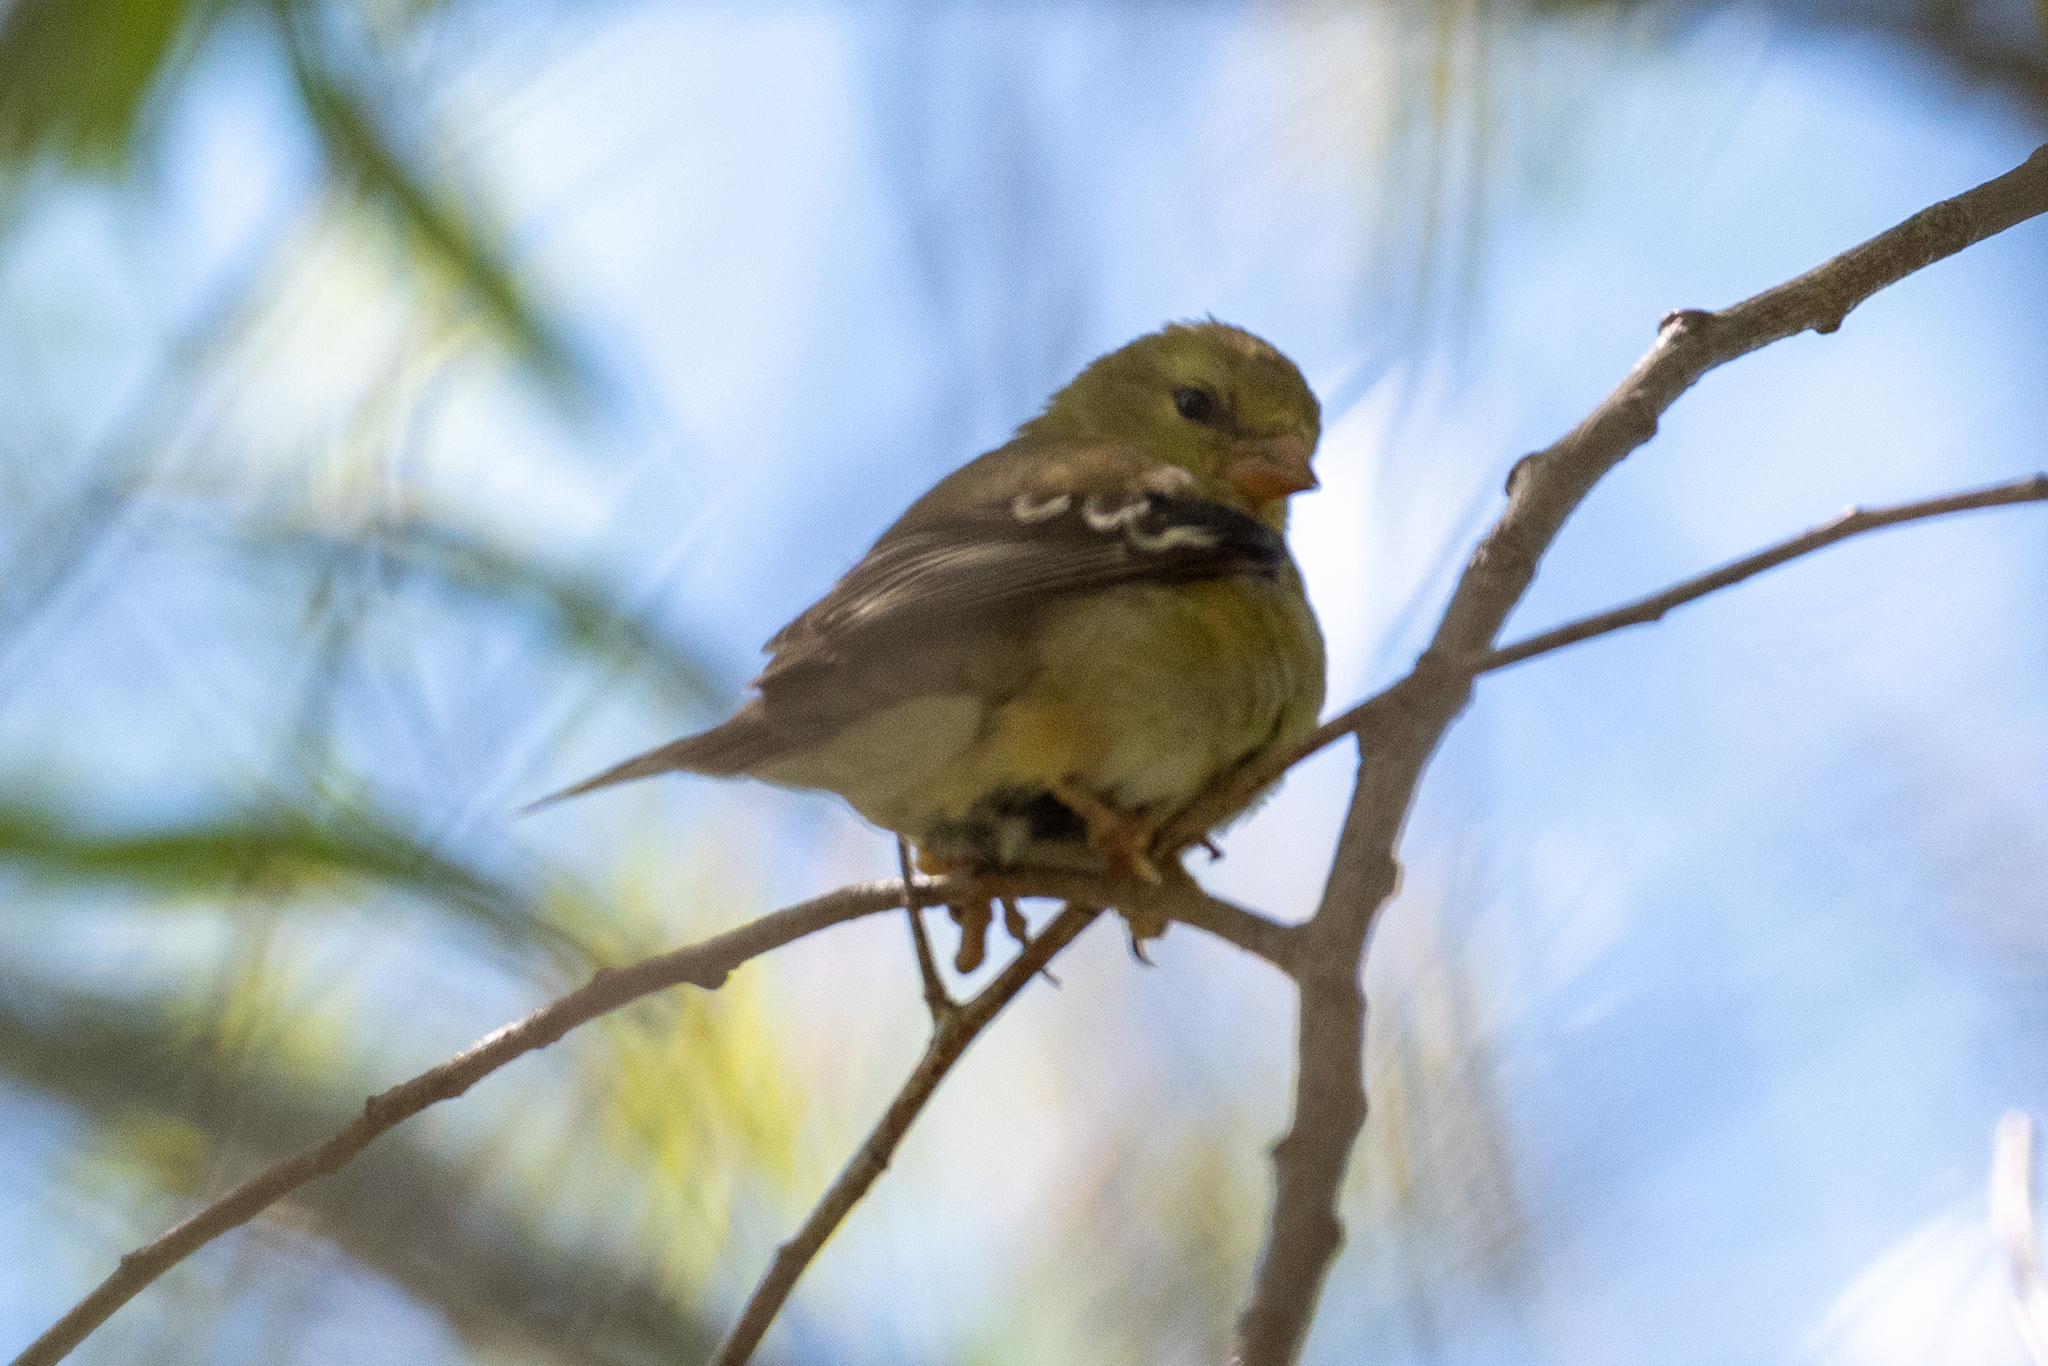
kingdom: Animalia
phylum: Chordata
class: Aves
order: Passeriformes
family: Fringillidae
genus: Spinus
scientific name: Spinus tristis
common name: American goldfinch
